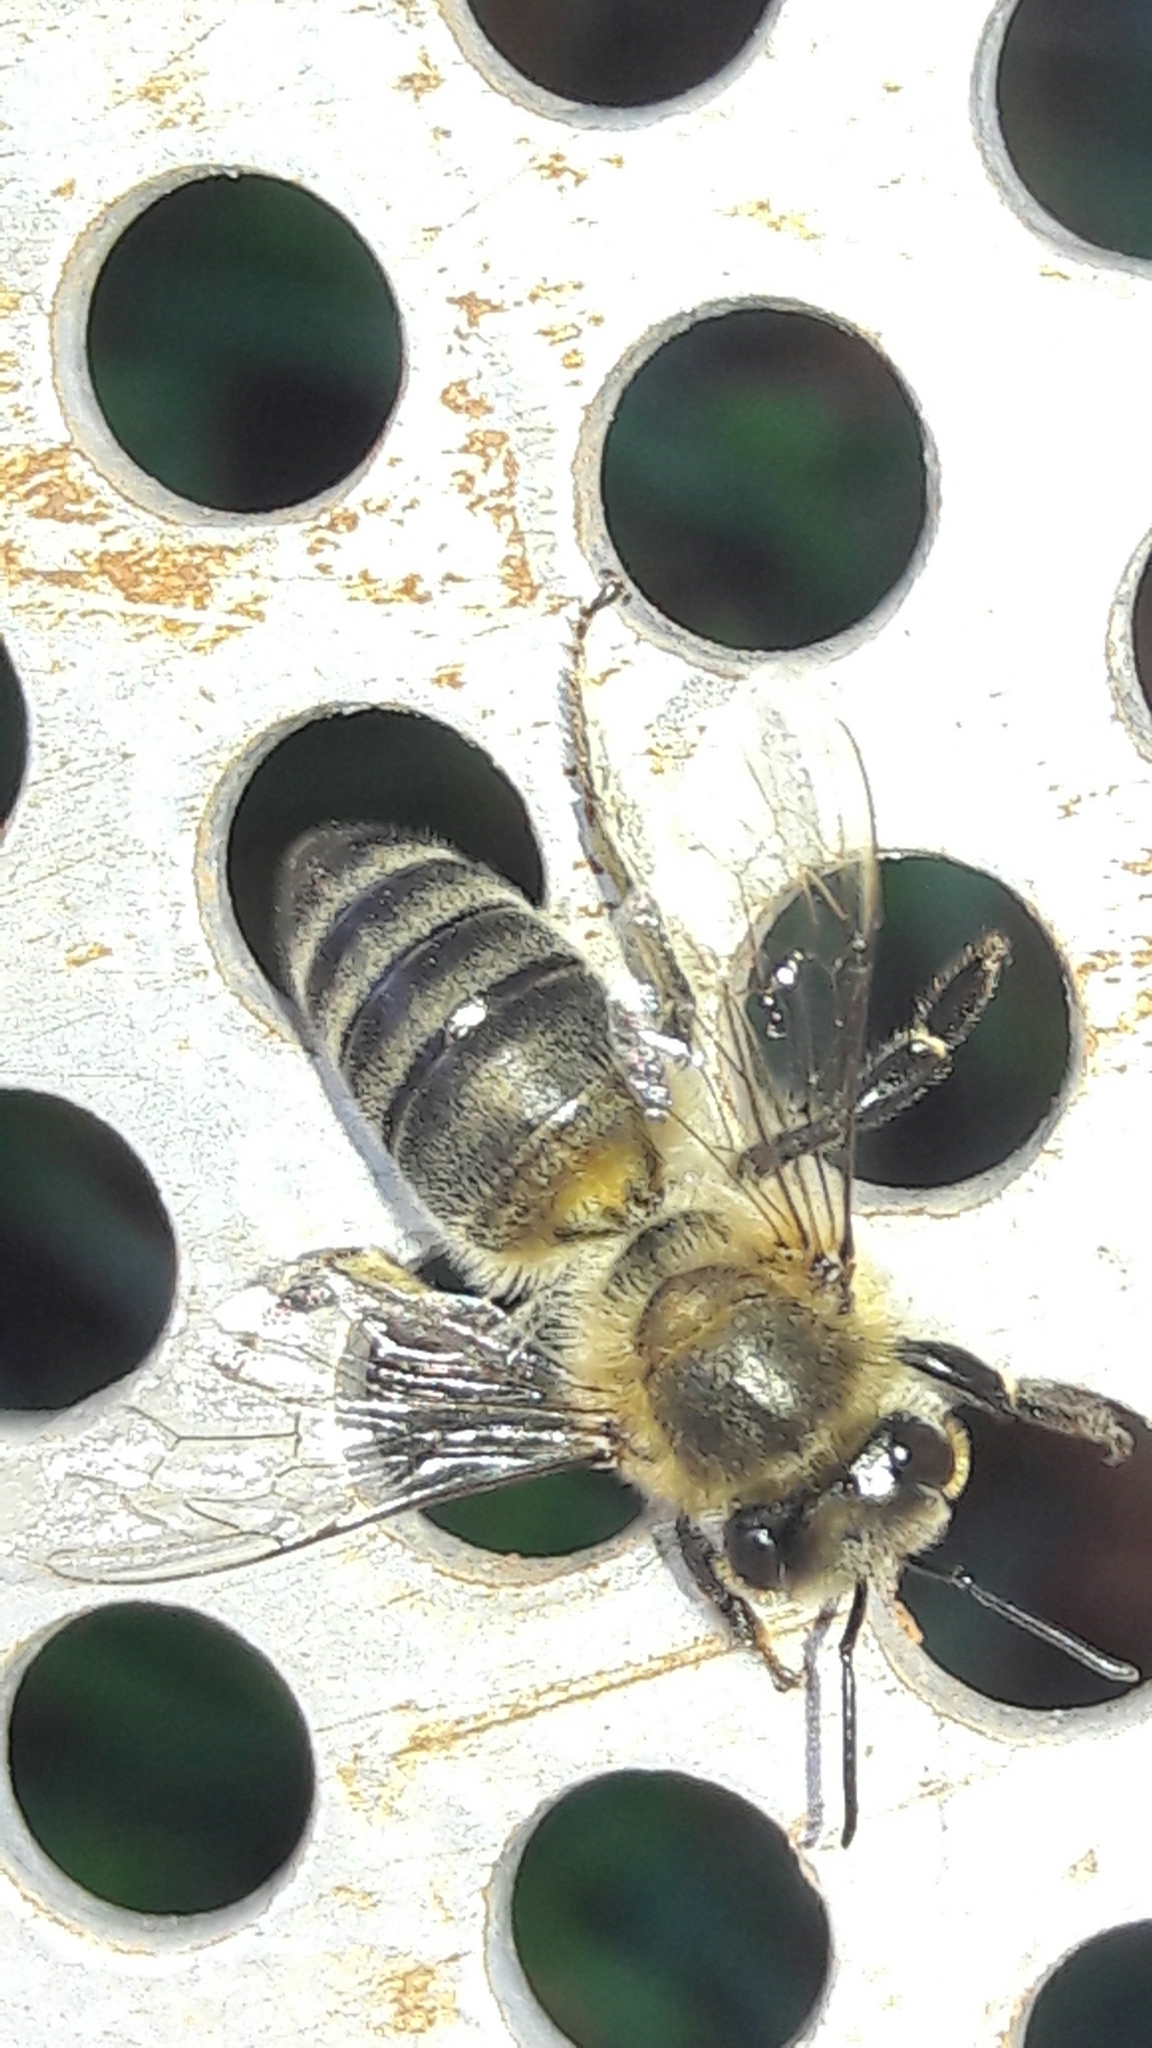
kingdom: Animalia
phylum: Arthropoda
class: Insecta
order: Hymenoptera
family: Apidae
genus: Apis
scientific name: Apis mellifera
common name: Honey bee
